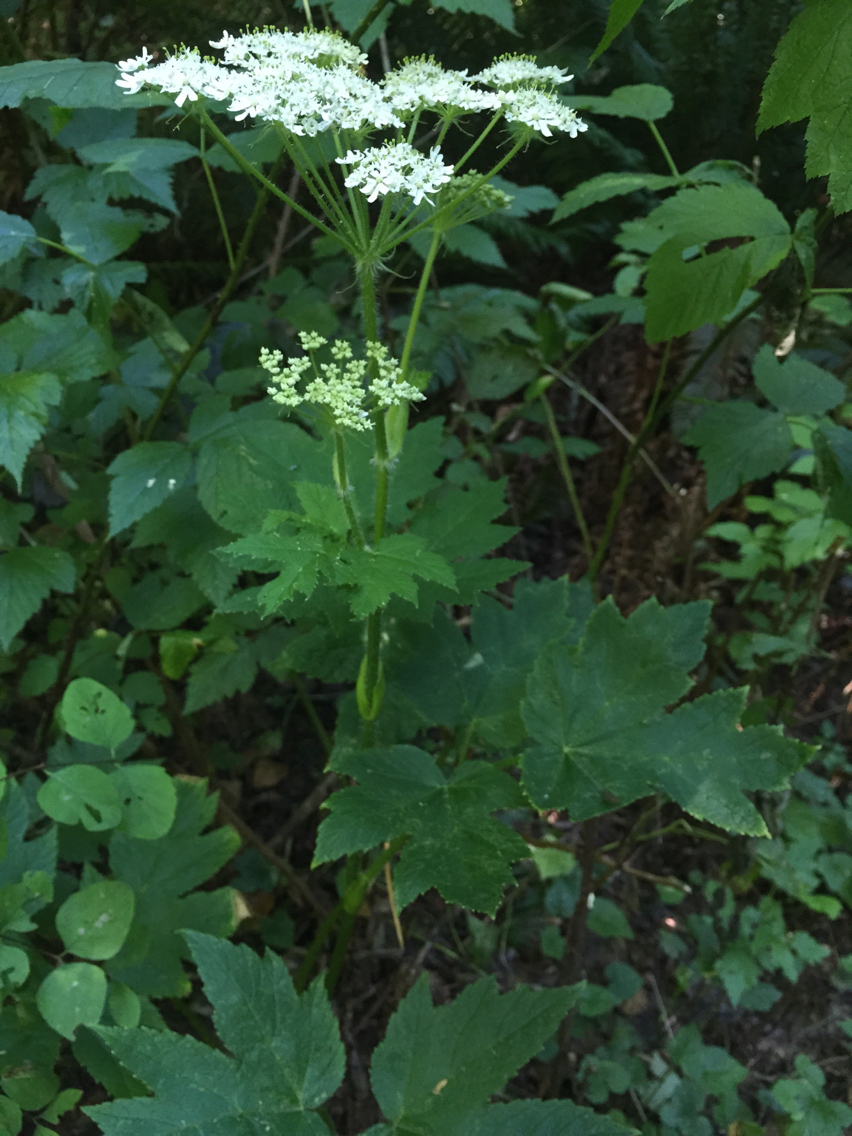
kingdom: Plantae
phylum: Tracheophyta
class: Magnoliopsida
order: Apiales
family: Apiaceae
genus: Heracleum
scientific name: Heracleum maximum
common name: American cow parsnip
